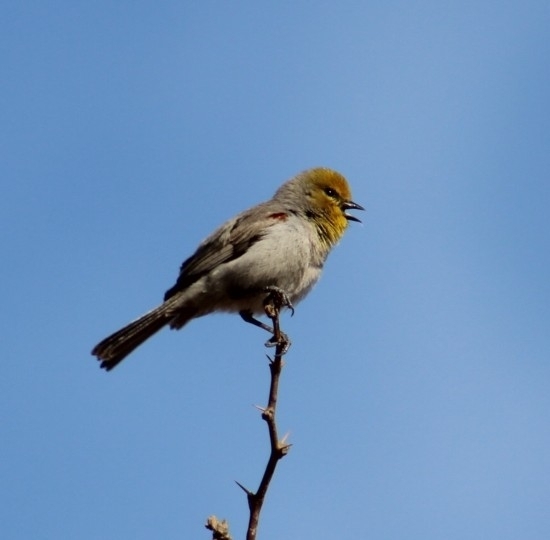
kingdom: Animalia
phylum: Chordata
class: Aves
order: Passeriformes
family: Remizidae
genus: Auriparus
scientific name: Auriparus flaviceps
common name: Verdin
